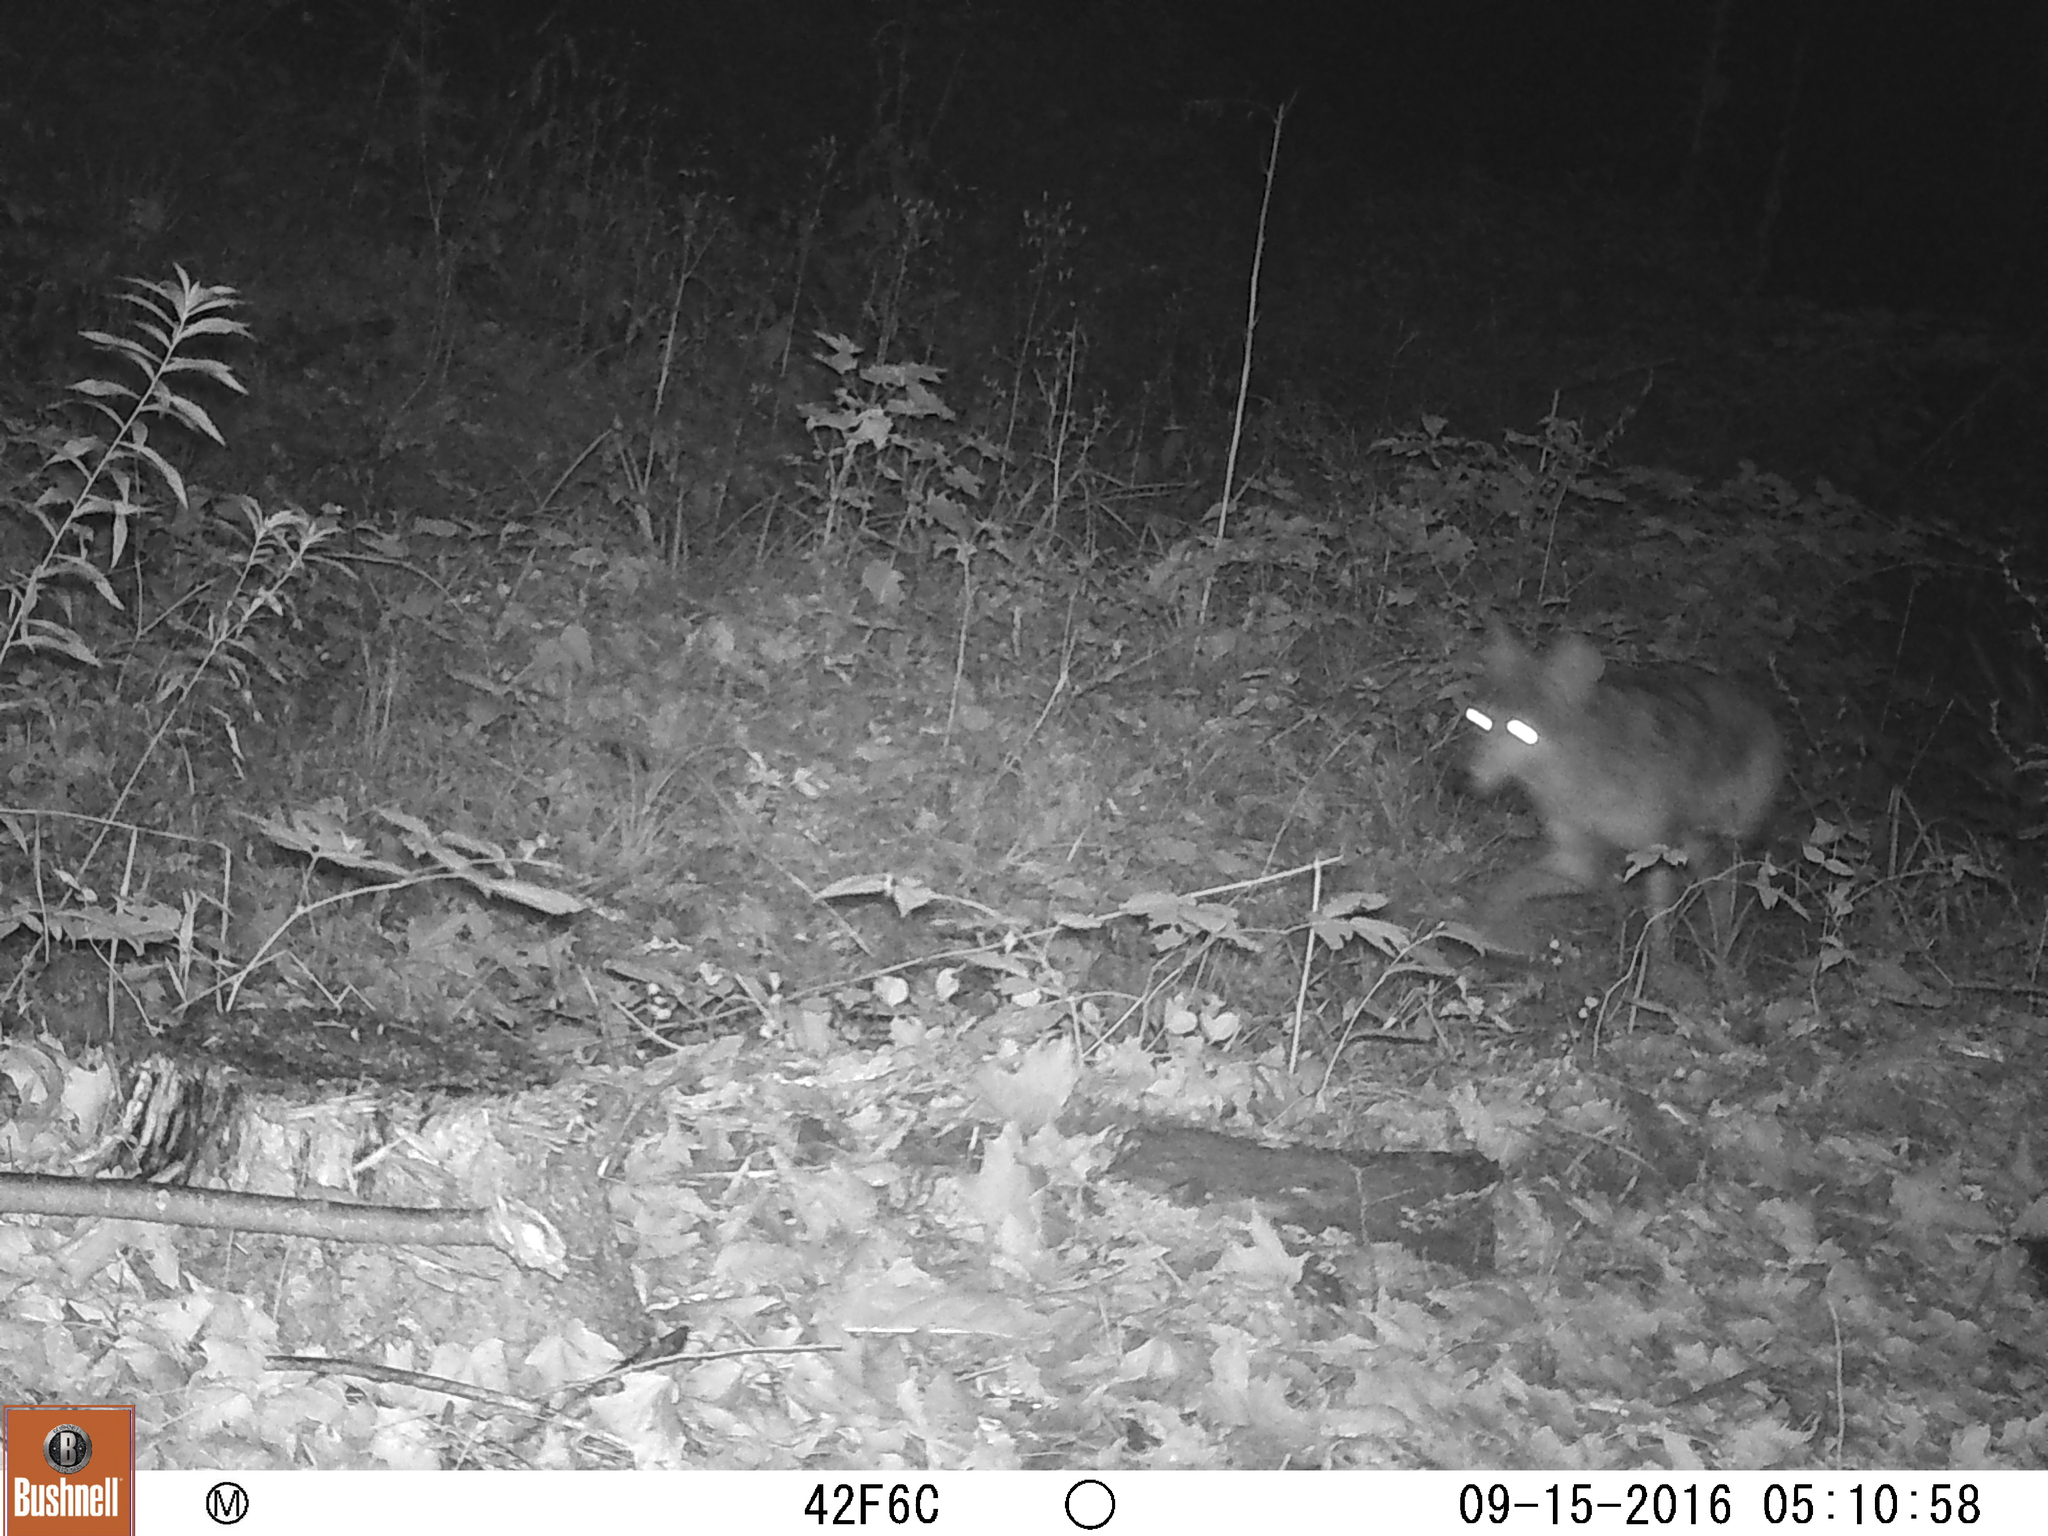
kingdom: Animalia
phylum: Chordata
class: Mammalia
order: Carnivora
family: Canidae
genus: Canis
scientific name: Canis latrans
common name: Coyote
